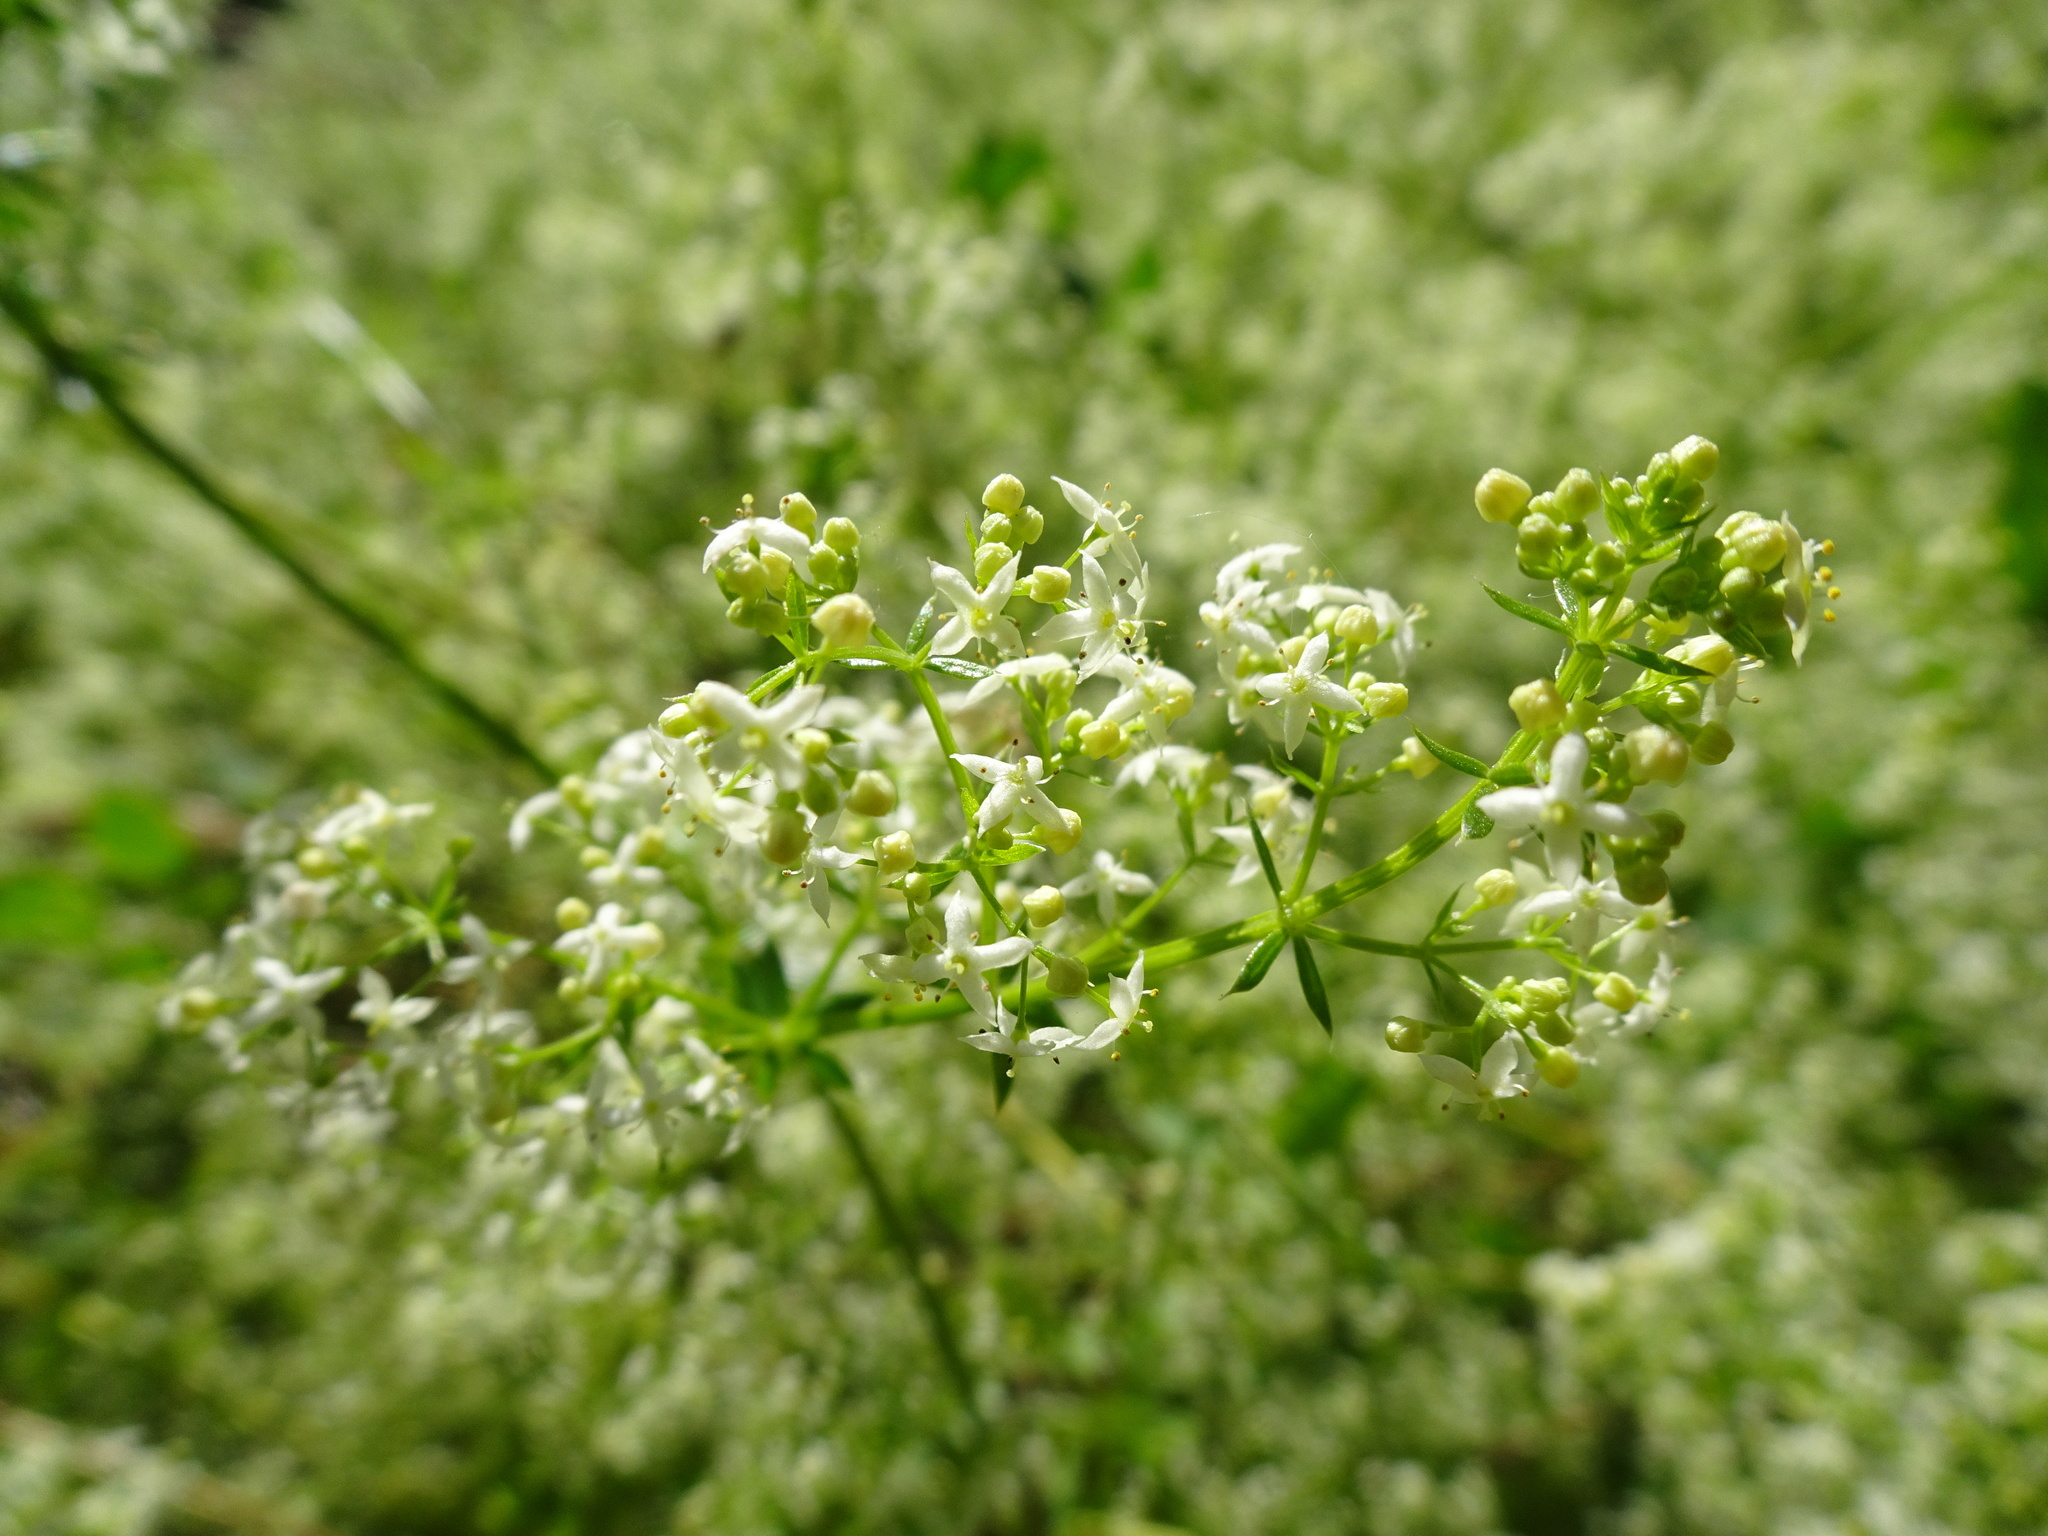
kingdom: Plantae
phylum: Tracheophyta
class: Magnoliopsida
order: Gentianales
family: Rubiaceae
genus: Galium
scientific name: Galium album
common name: White bedstraw
